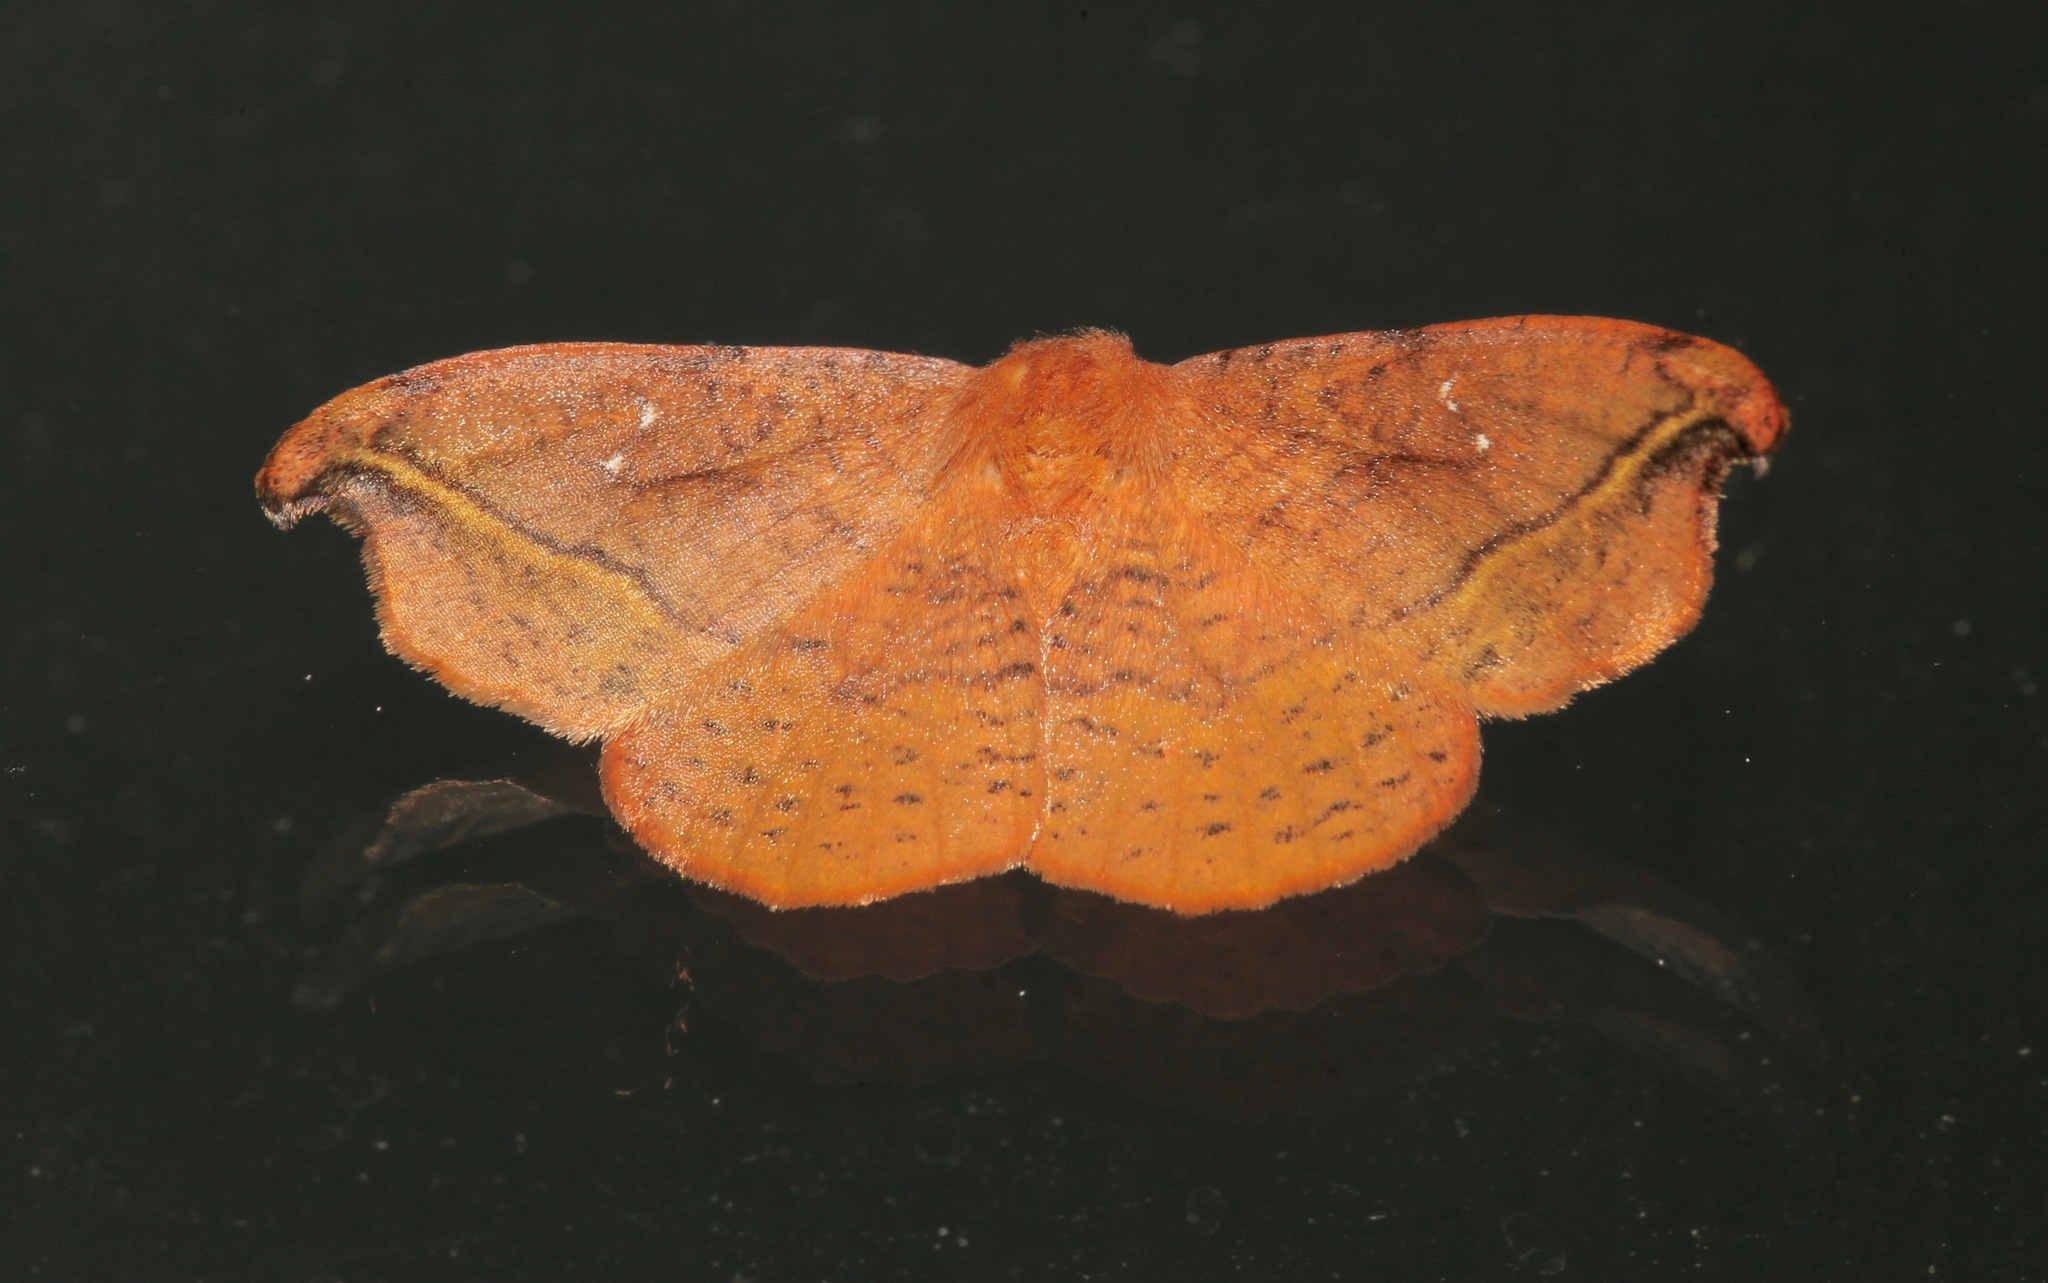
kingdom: Animalia
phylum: Arthropoda
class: Insecta
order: Lepidoptera
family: Drepanidae
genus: Oreta
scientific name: Oreta rosea
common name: Rose hooktip
